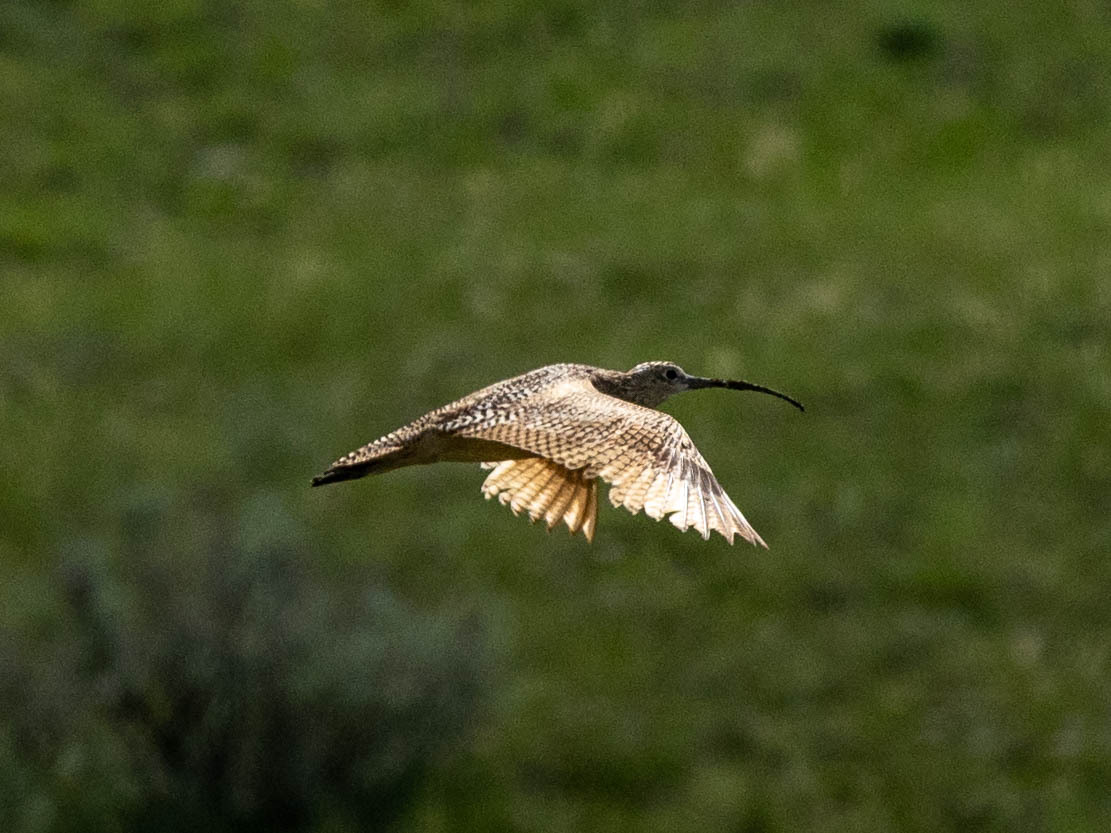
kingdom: Animalia
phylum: Chordata
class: Aves
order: Charadriiformes
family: Scolopacidae
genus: Numenius
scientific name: Numenius americanus
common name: Long-billed curlew
